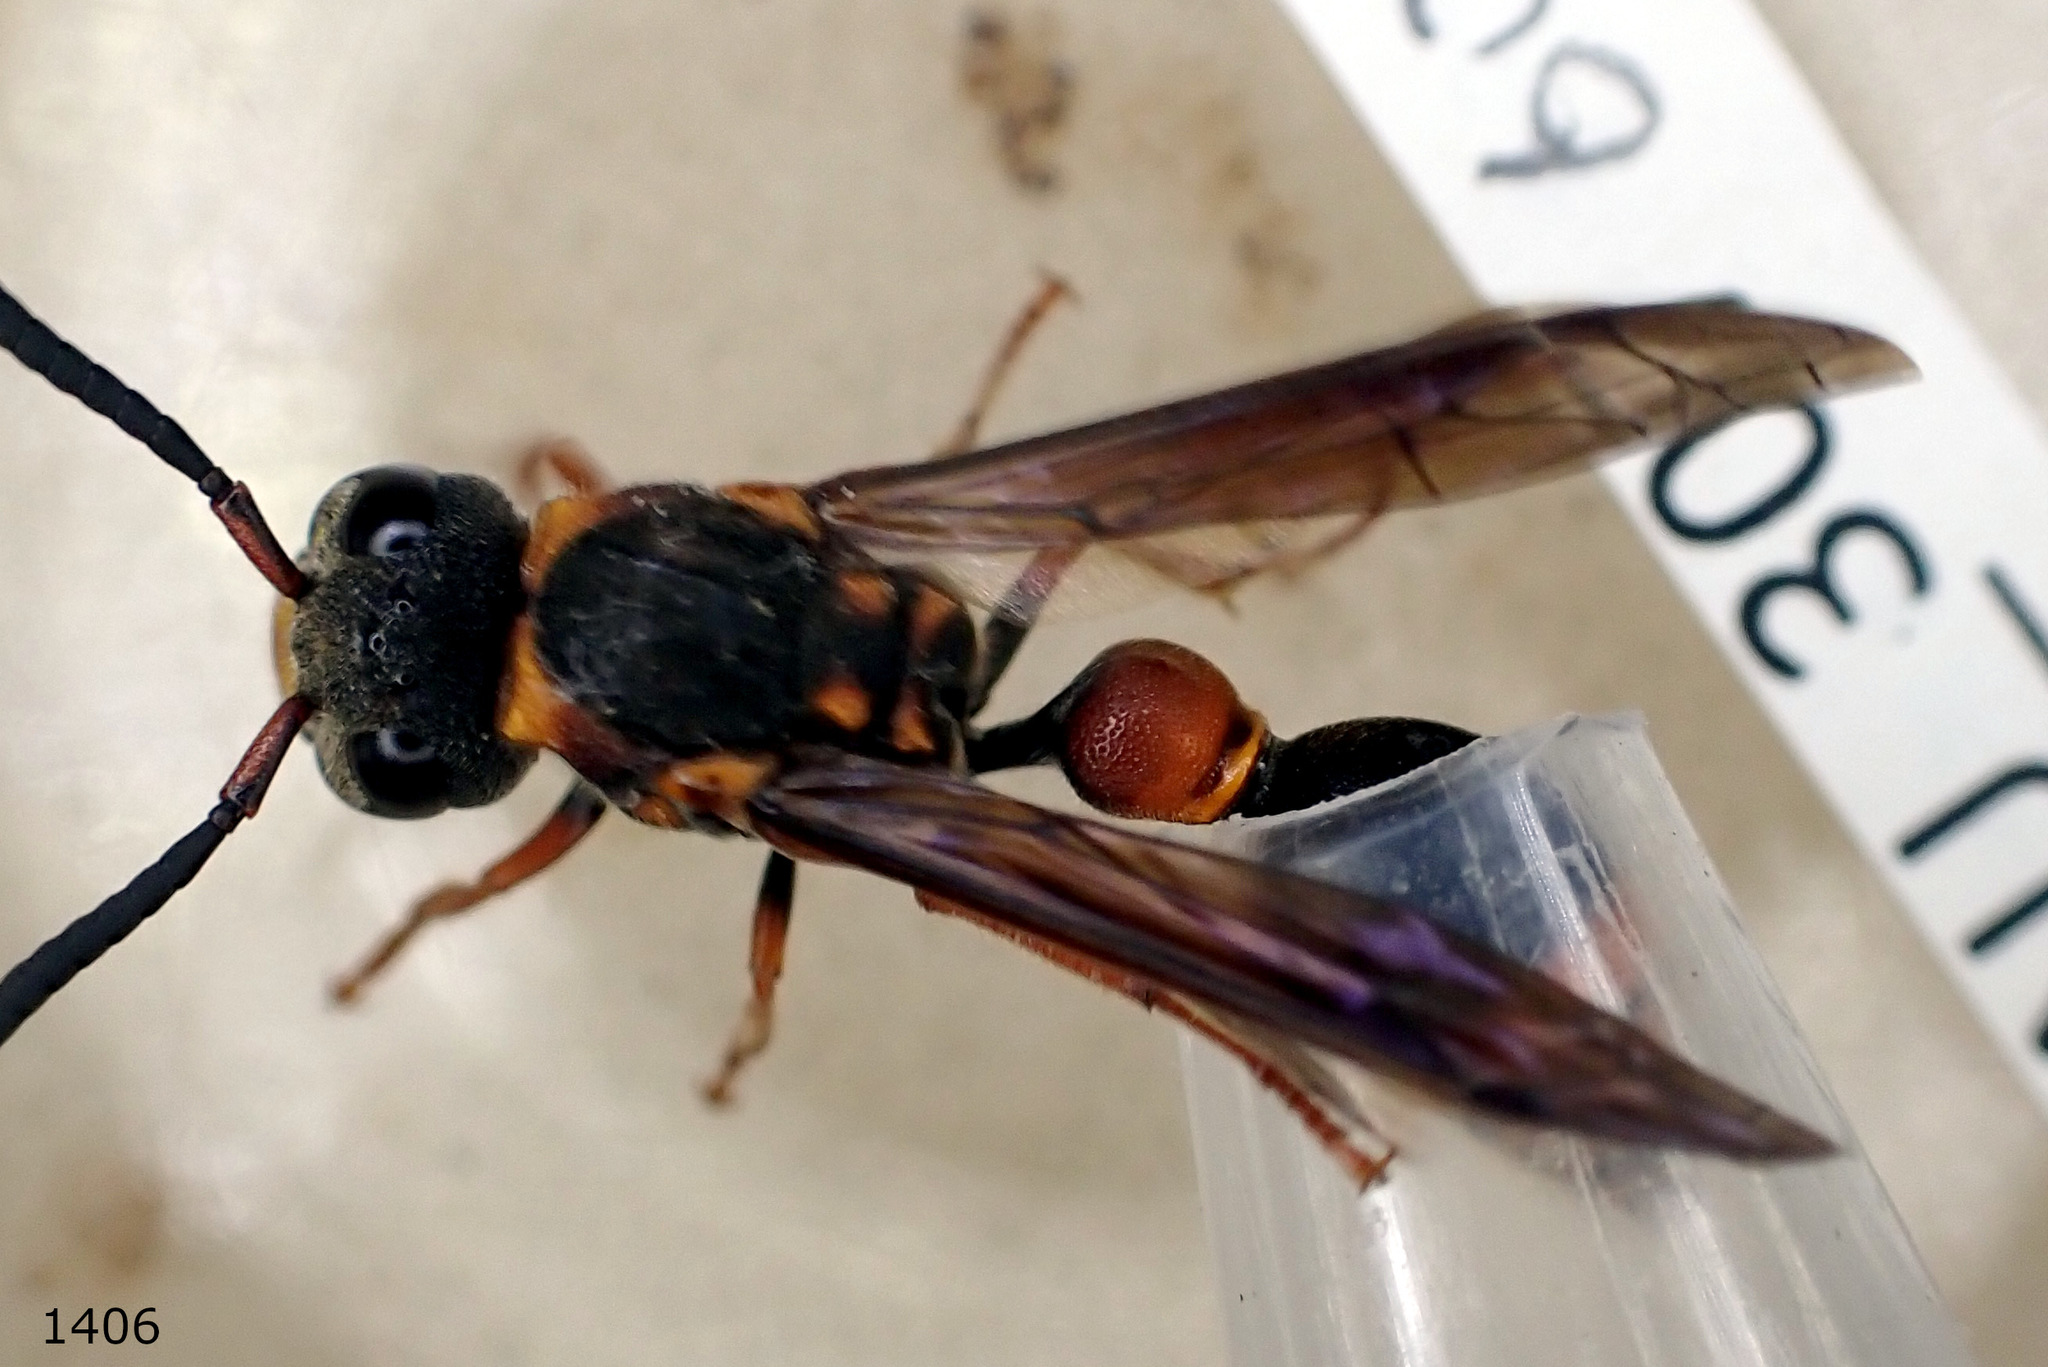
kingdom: Animalia
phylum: Arthropoda
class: Insecta
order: Hymenoptera
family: Eumenidae
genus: Deuterodiscoelius
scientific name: Deuterodiscoelius verreauxii
